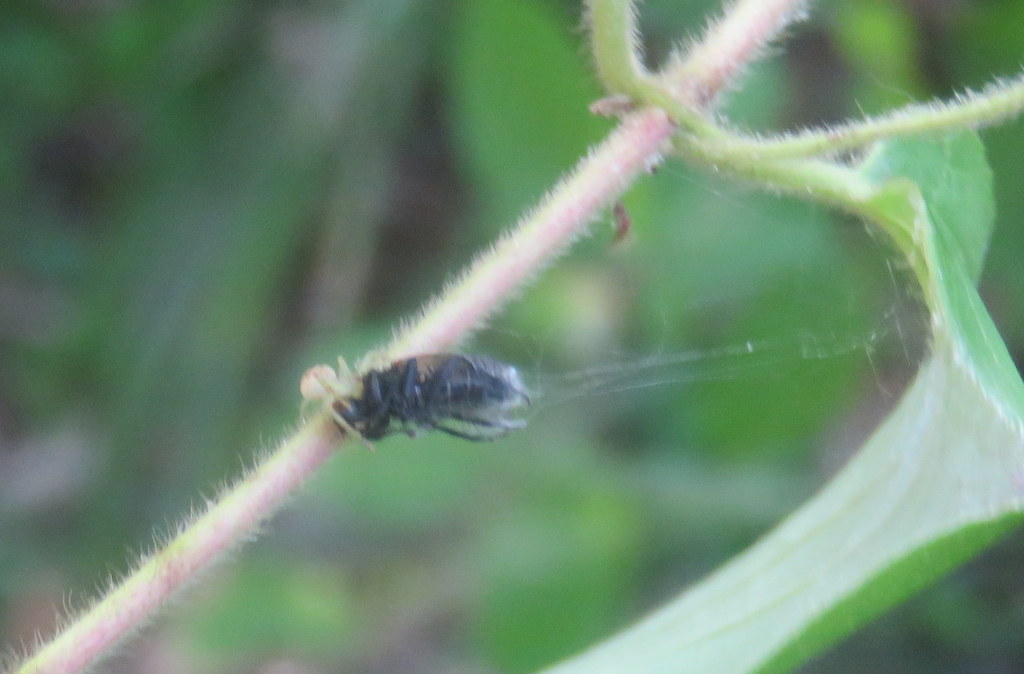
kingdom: Animalia
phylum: Arthropoda
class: Arachnida
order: Araneae
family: Thomisidae
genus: Misumenops
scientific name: Misumenops
